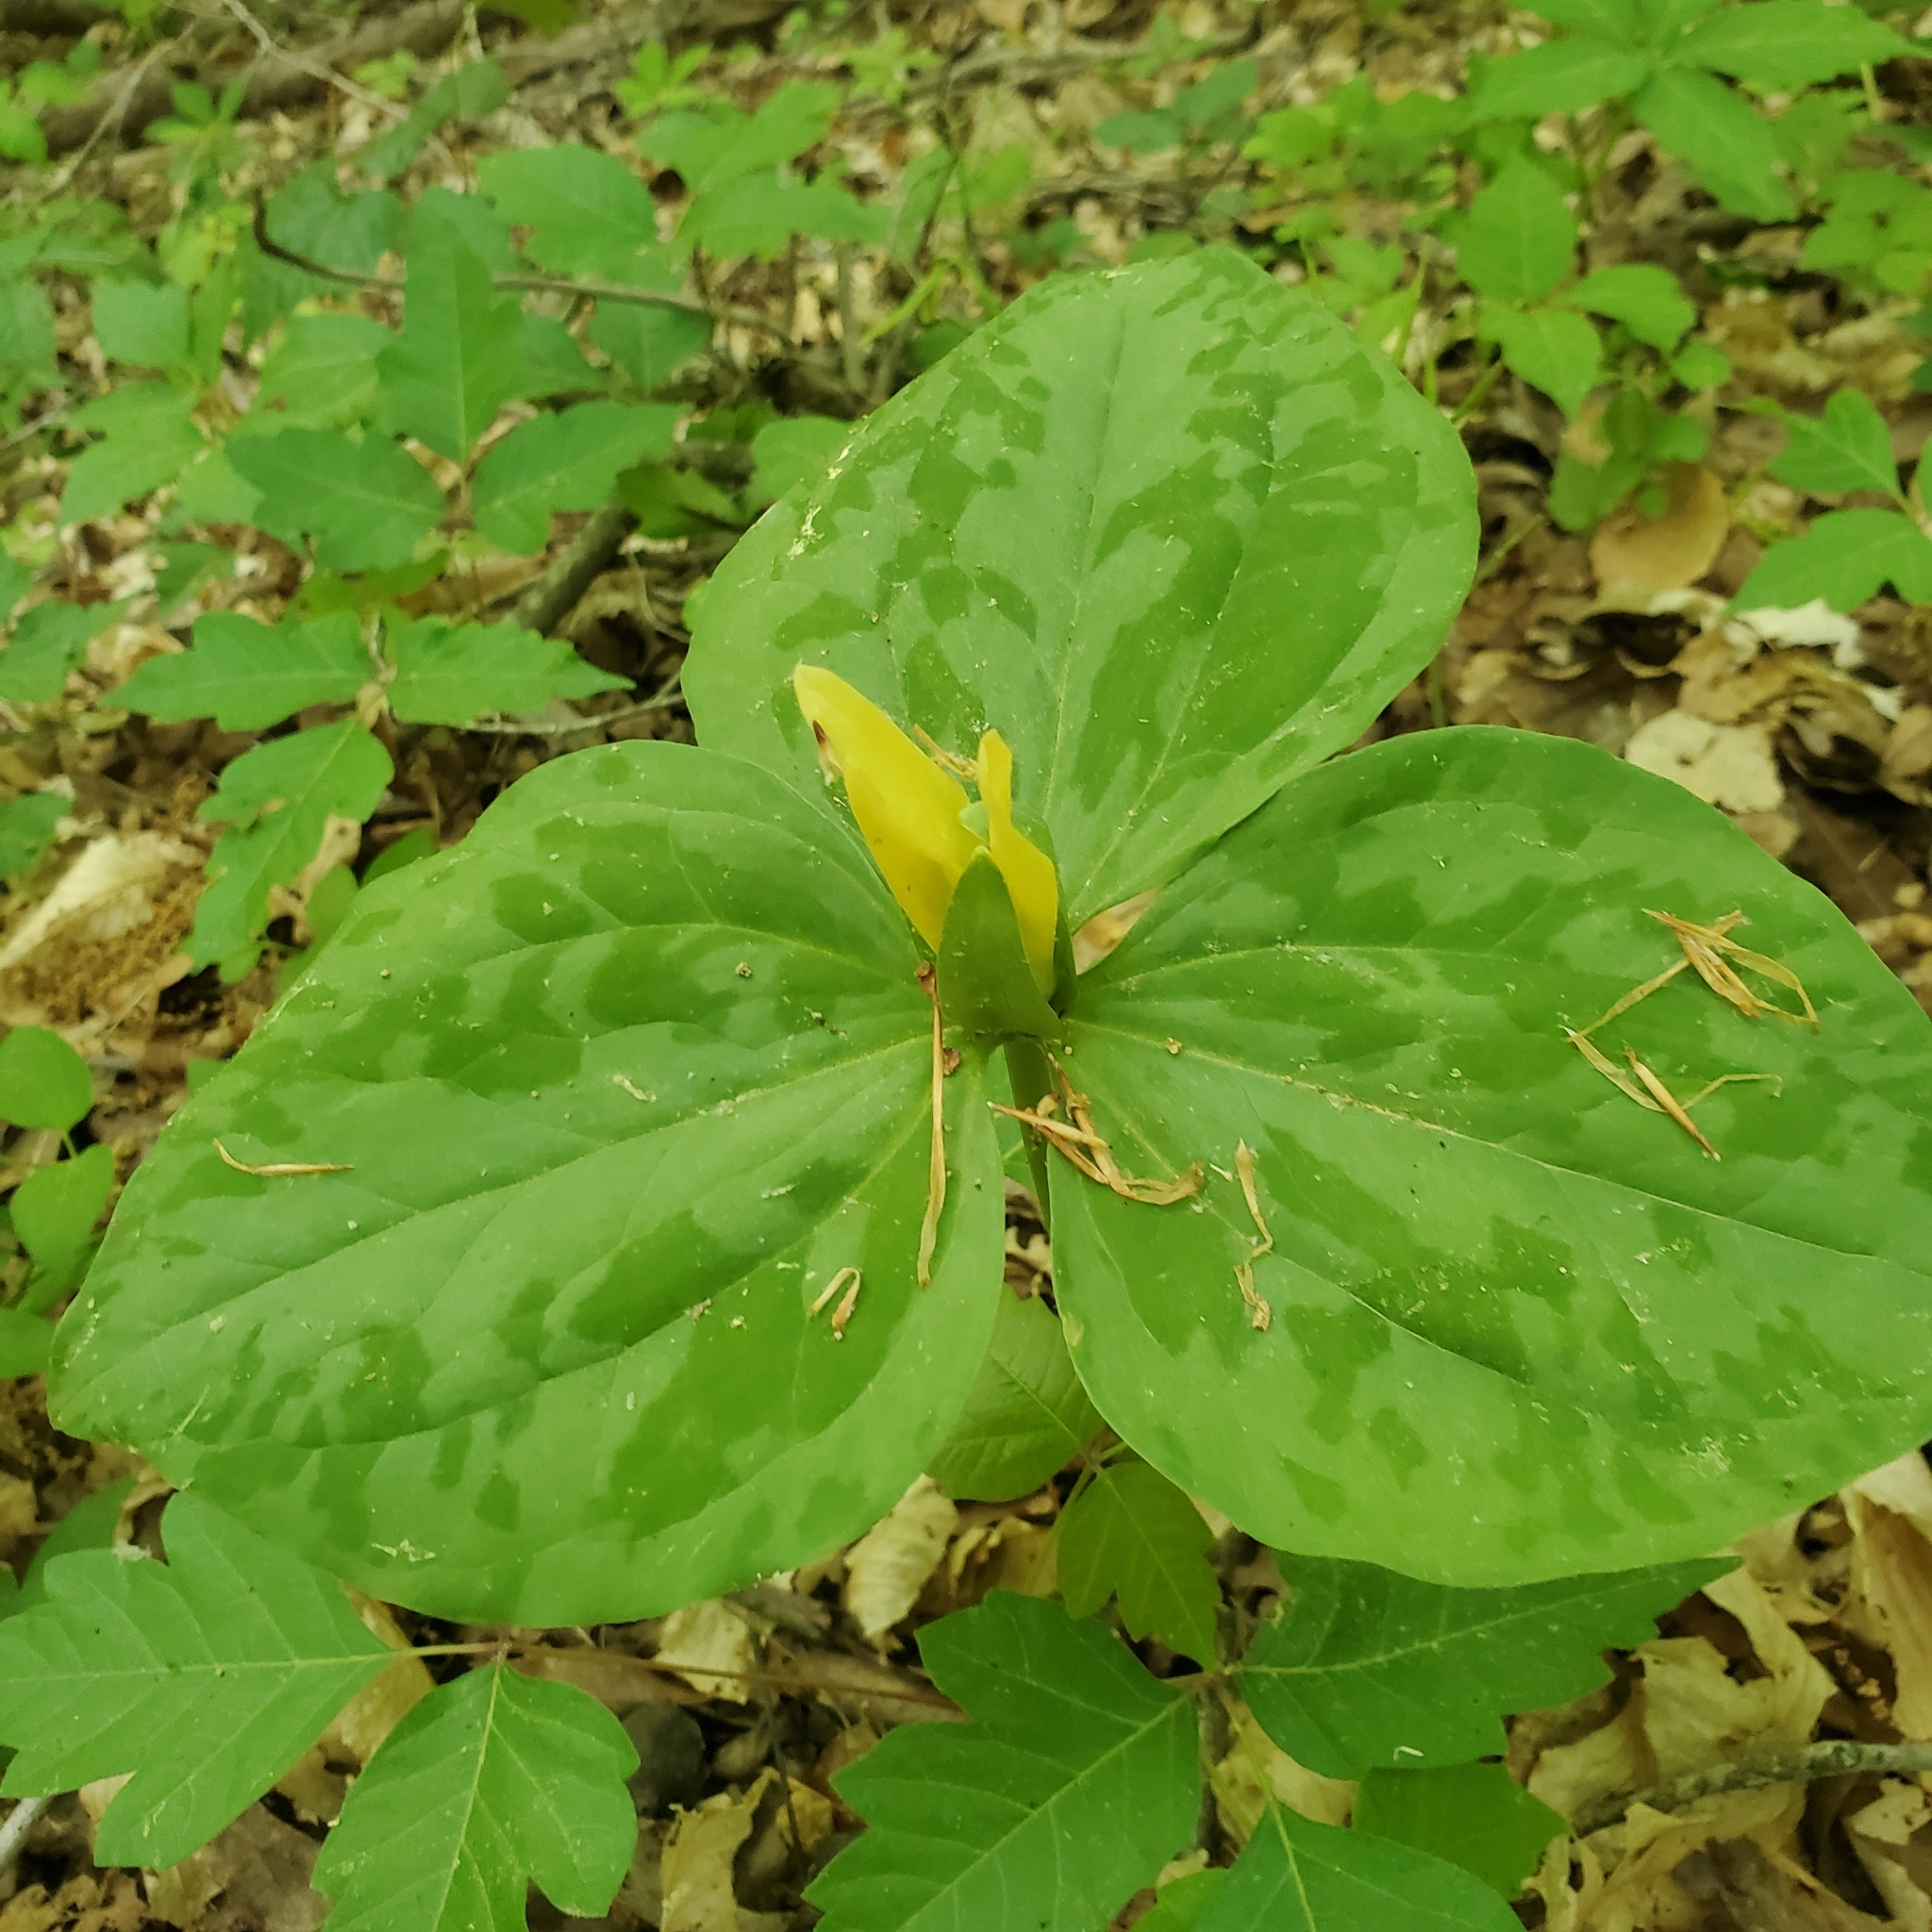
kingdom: Plantae
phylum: Tracheophyta
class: Liliopsida
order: Liliales
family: Melanthiaceae
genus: Trillium
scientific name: Trillium luteum
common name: Wax trillium
